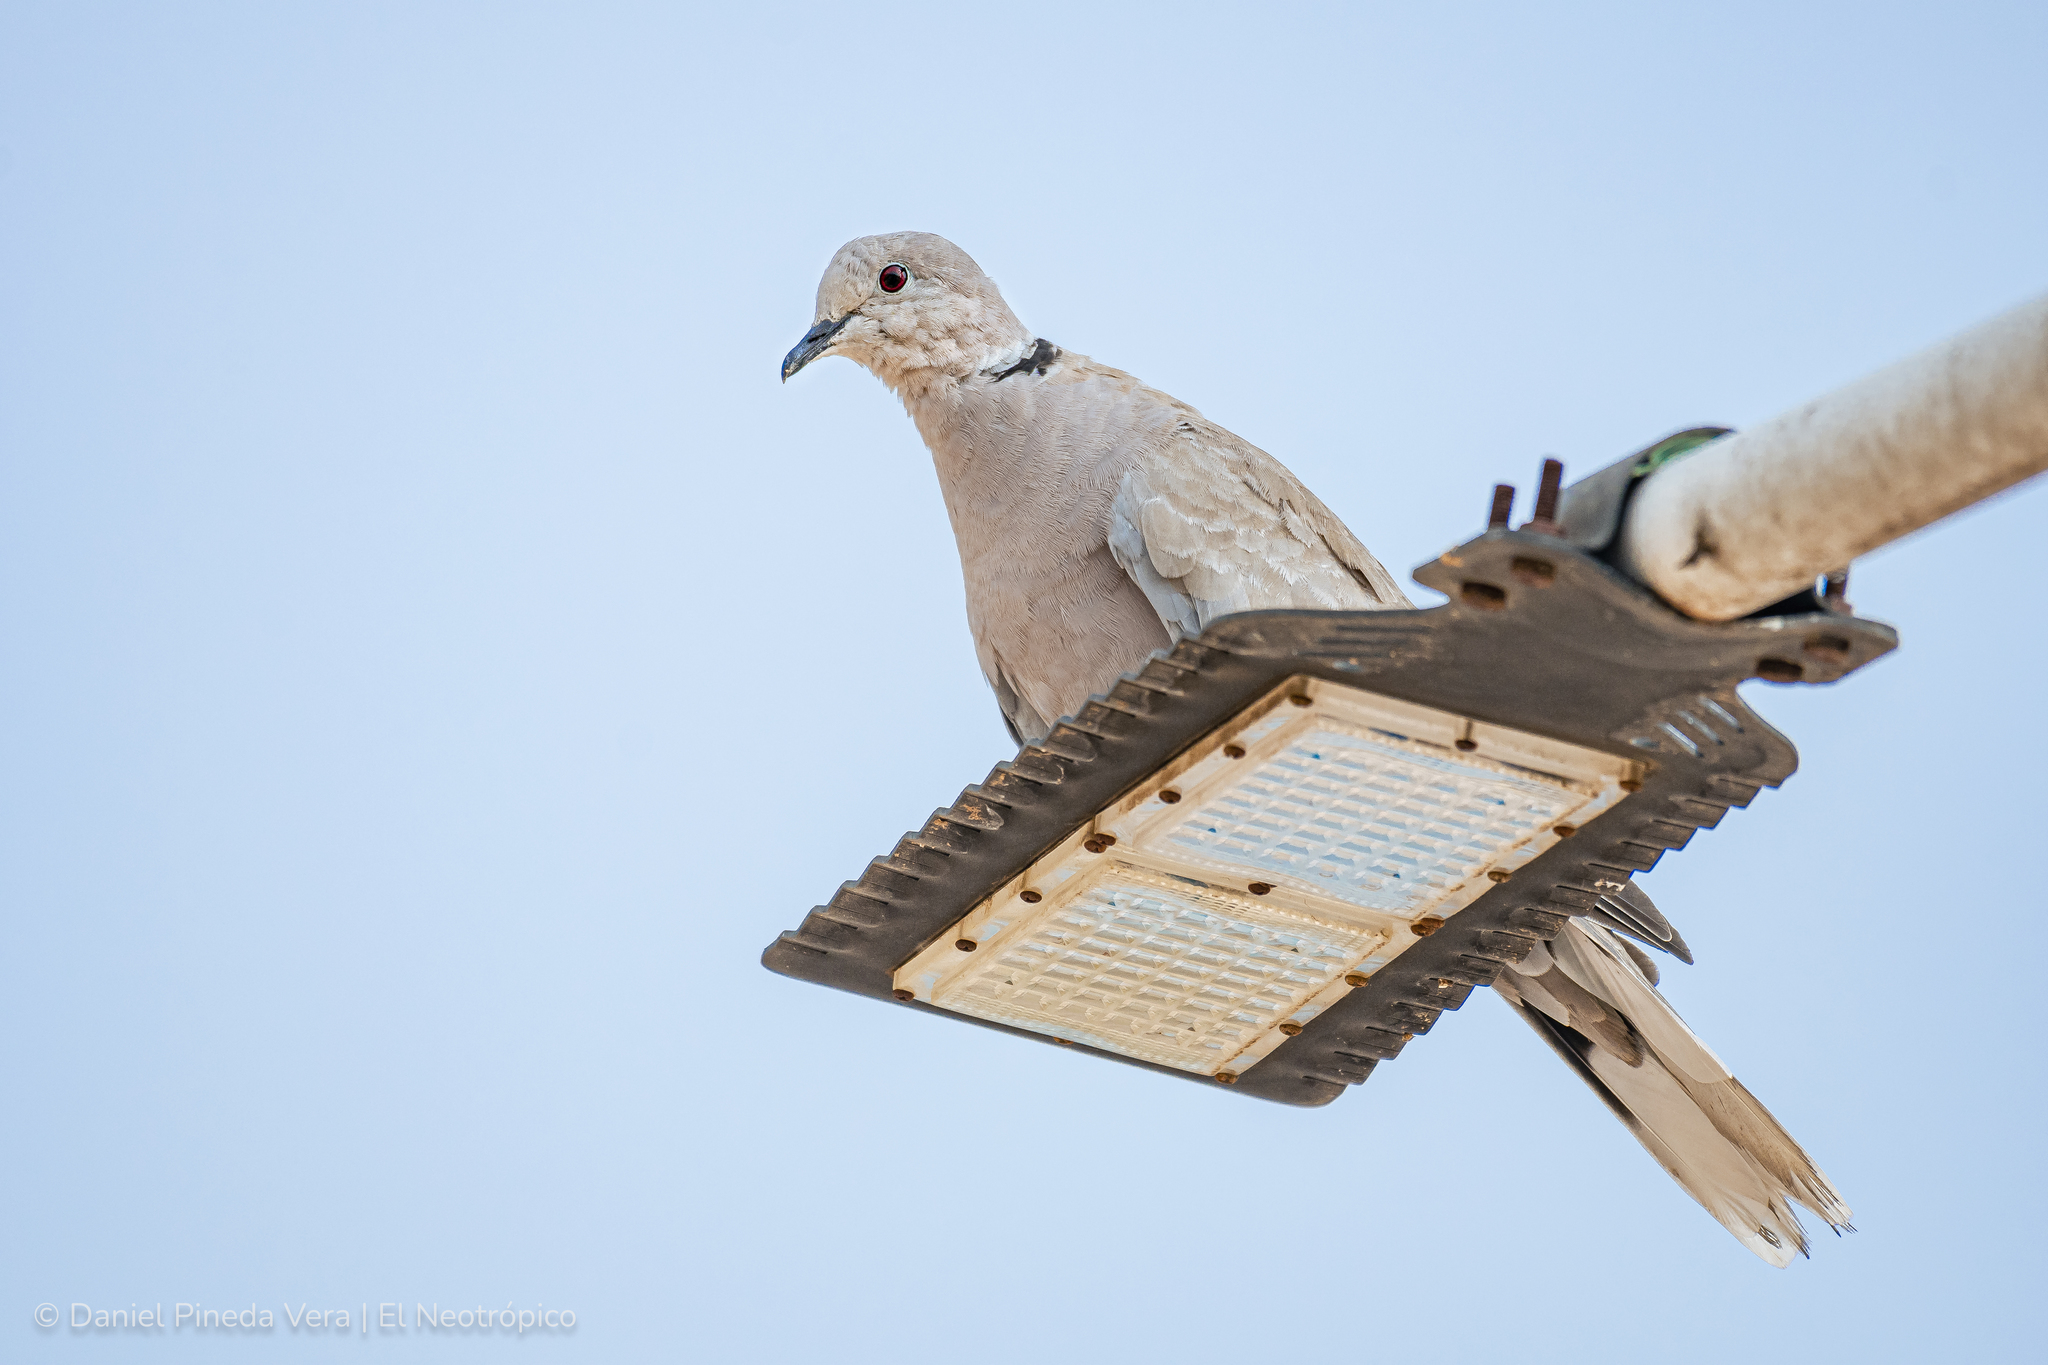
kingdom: Animalia
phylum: Chordata
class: Aves
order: Columbiformes
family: Columbidae
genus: Streptopelia
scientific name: Streptopelia decaocto
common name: Eurasian collared dove
